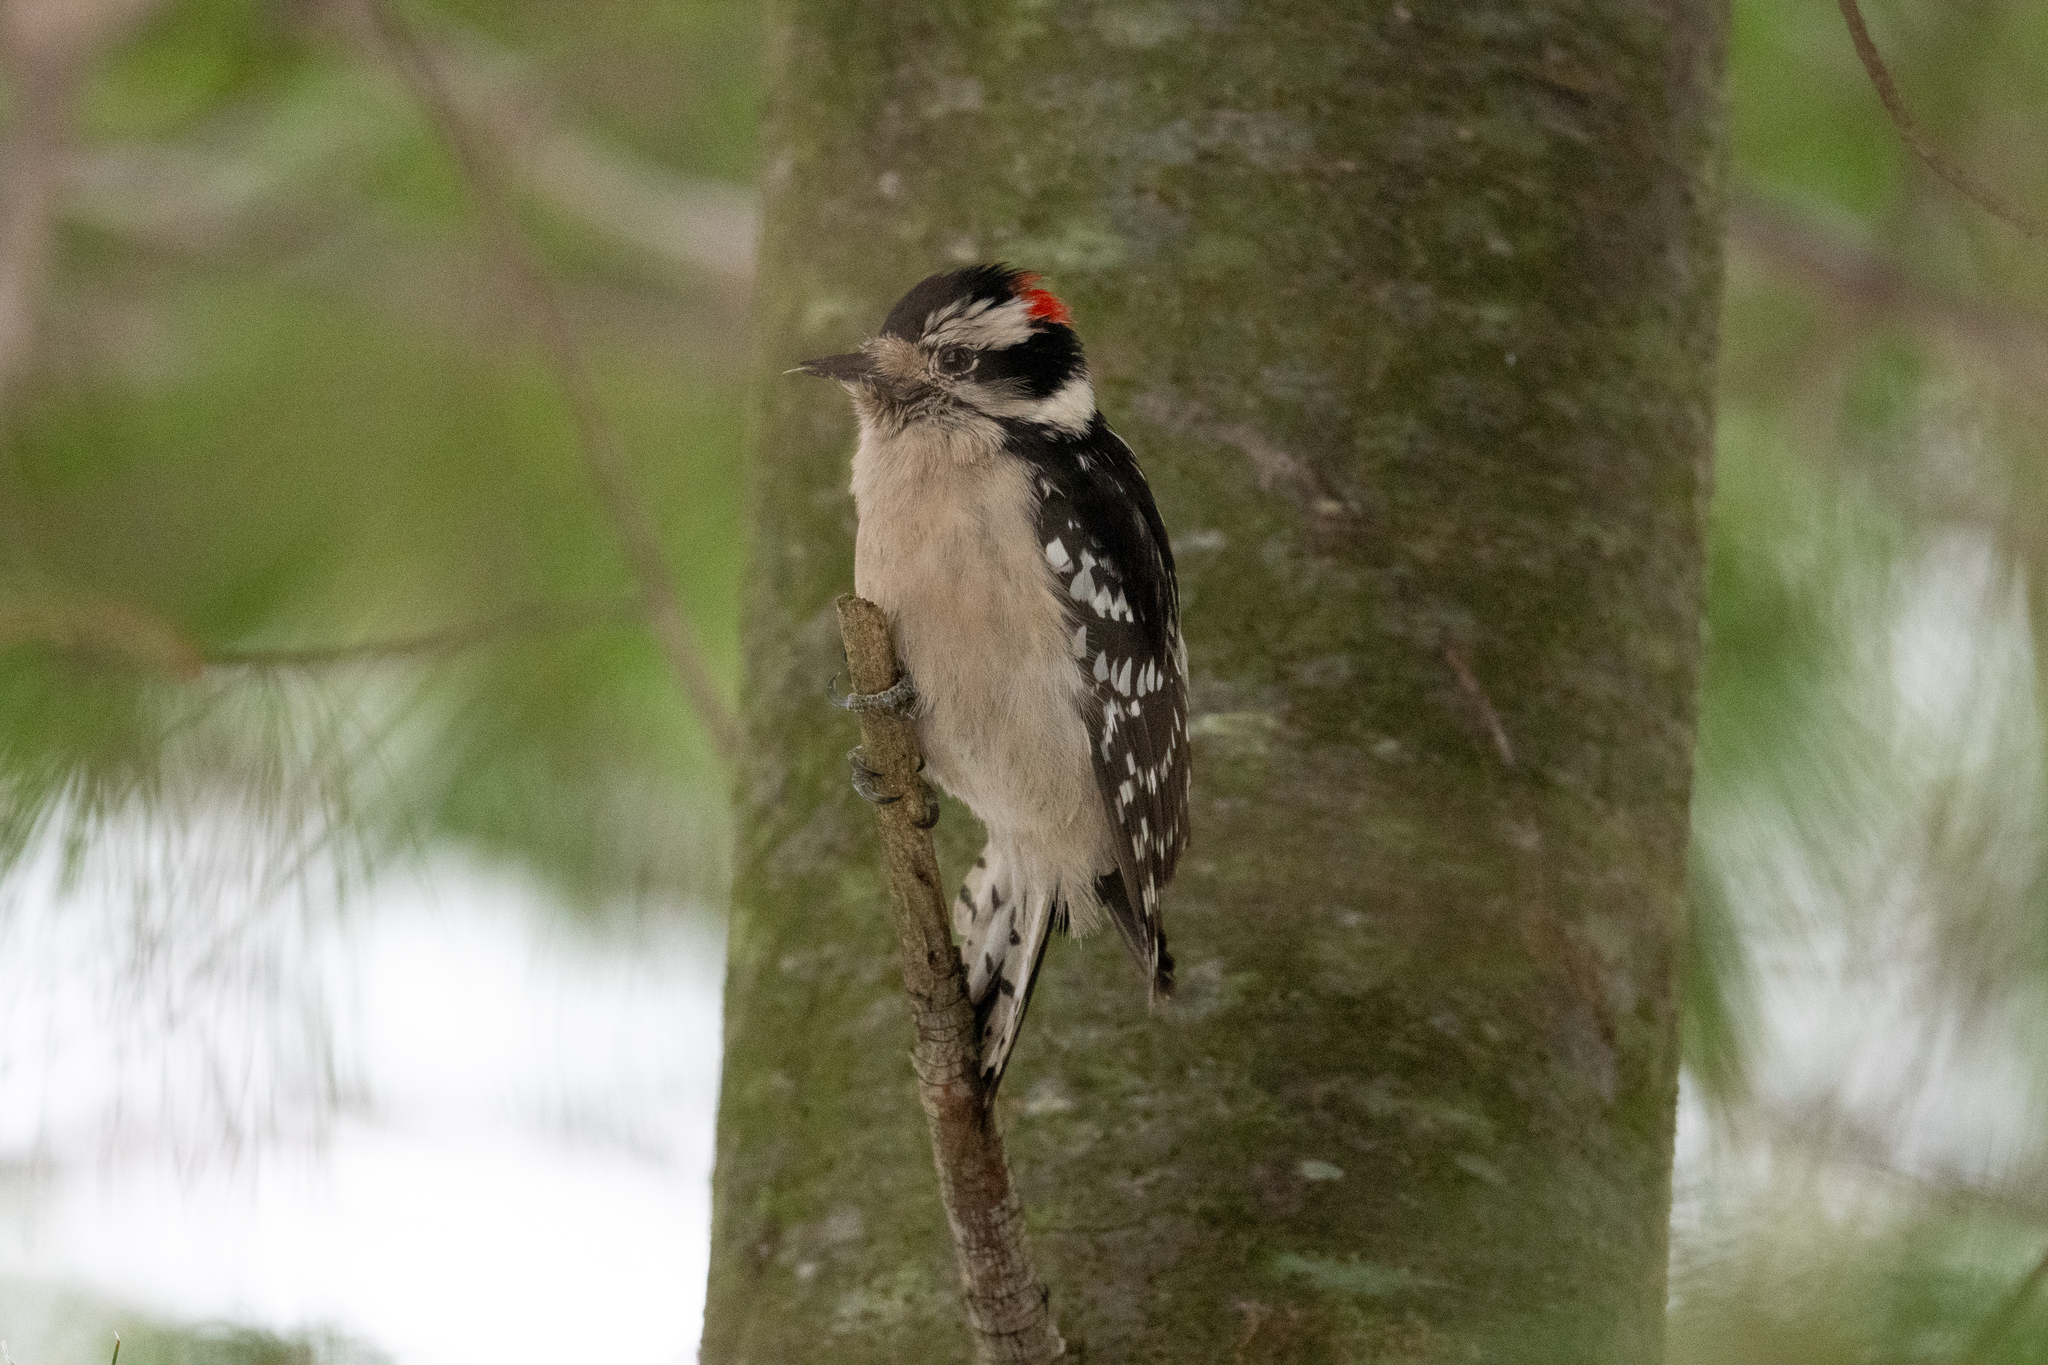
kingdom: Animalia
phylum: Chordata
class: Aves
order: Piciformes
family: Picidae
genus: Dryobates
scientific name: Dryobates pubescens
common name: Downy woodpecker
